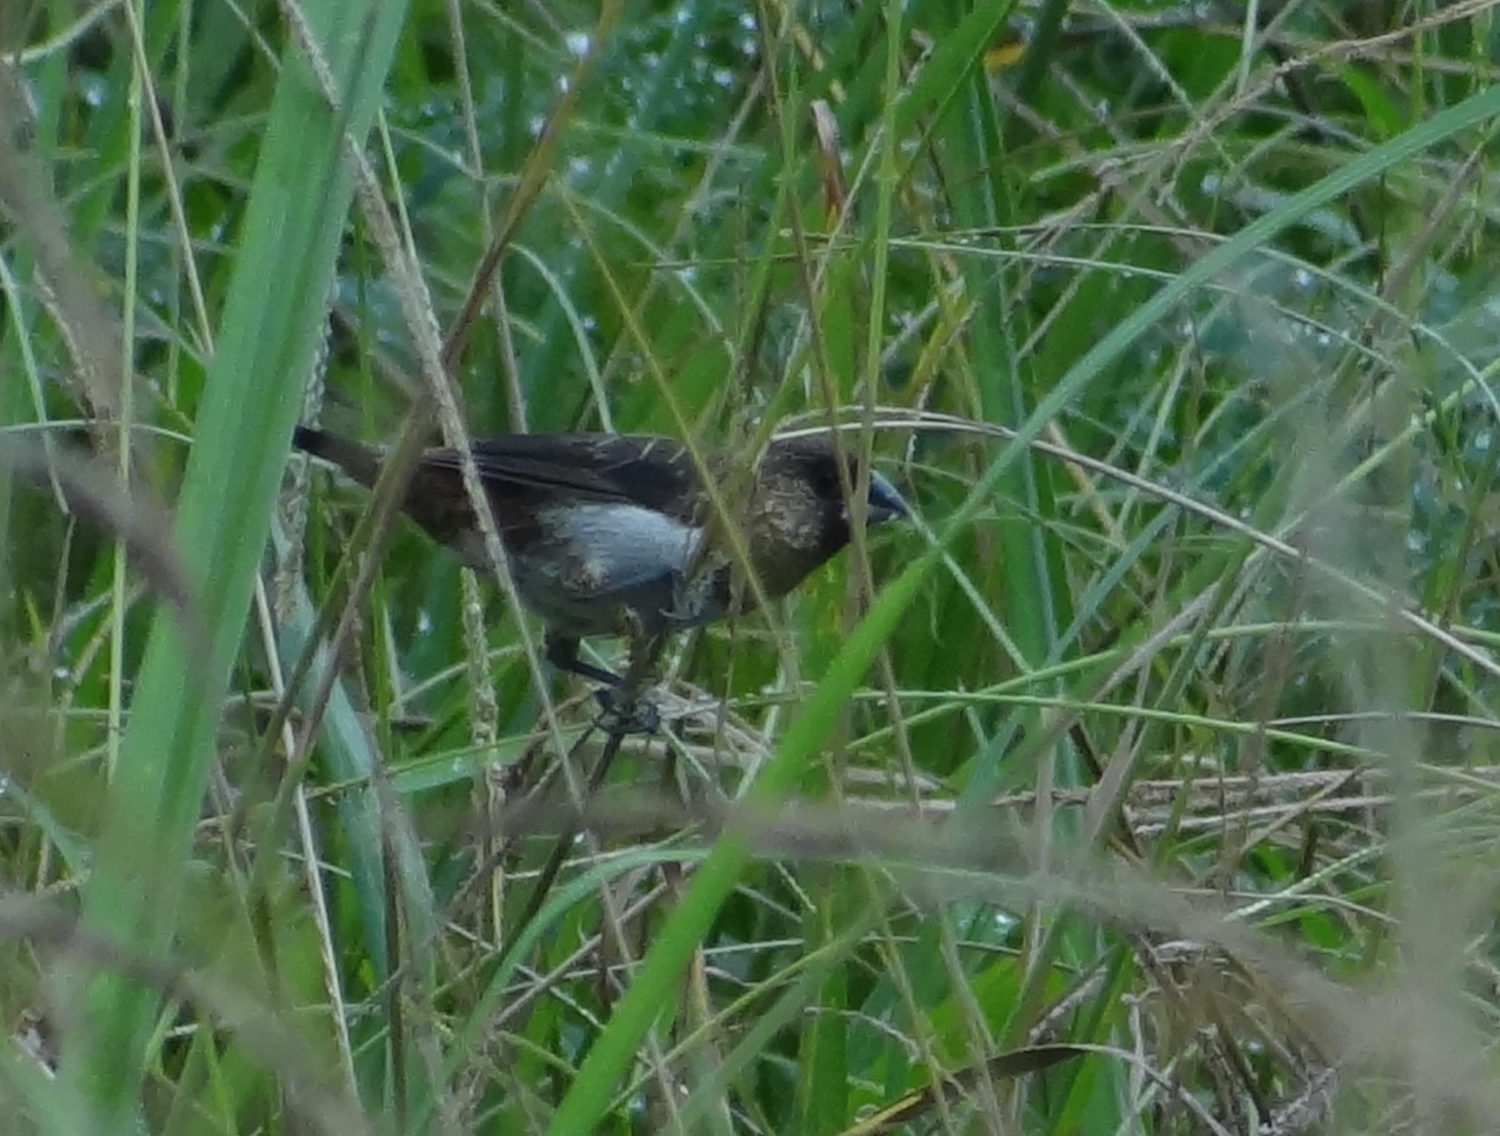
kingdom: Animalia
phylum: Chordata
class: Aves
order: Passeriformes
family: Estrildidae
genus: Lonchura
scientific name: Lonchura striata
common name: White-rumped munia
